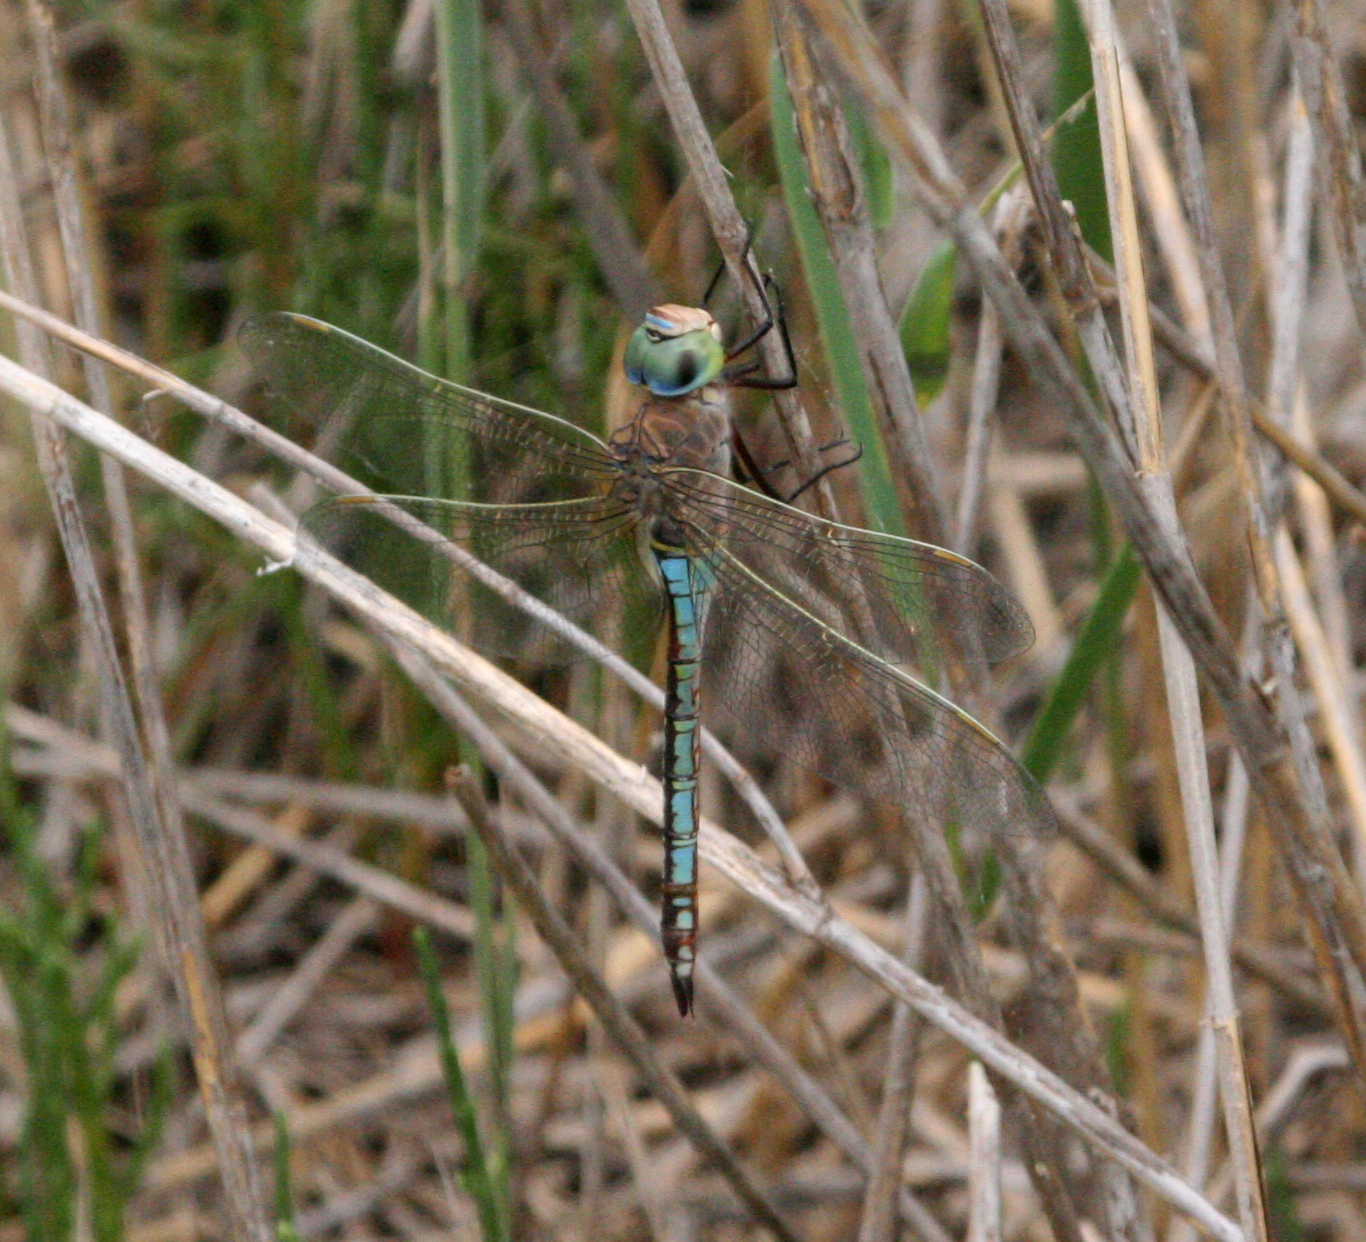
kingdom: Animalia
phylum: Arthropoda
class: Insecta
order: Odonata
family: Aeshnidae
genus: Anax
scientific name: Anax parthenope
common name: Lesser emperor
